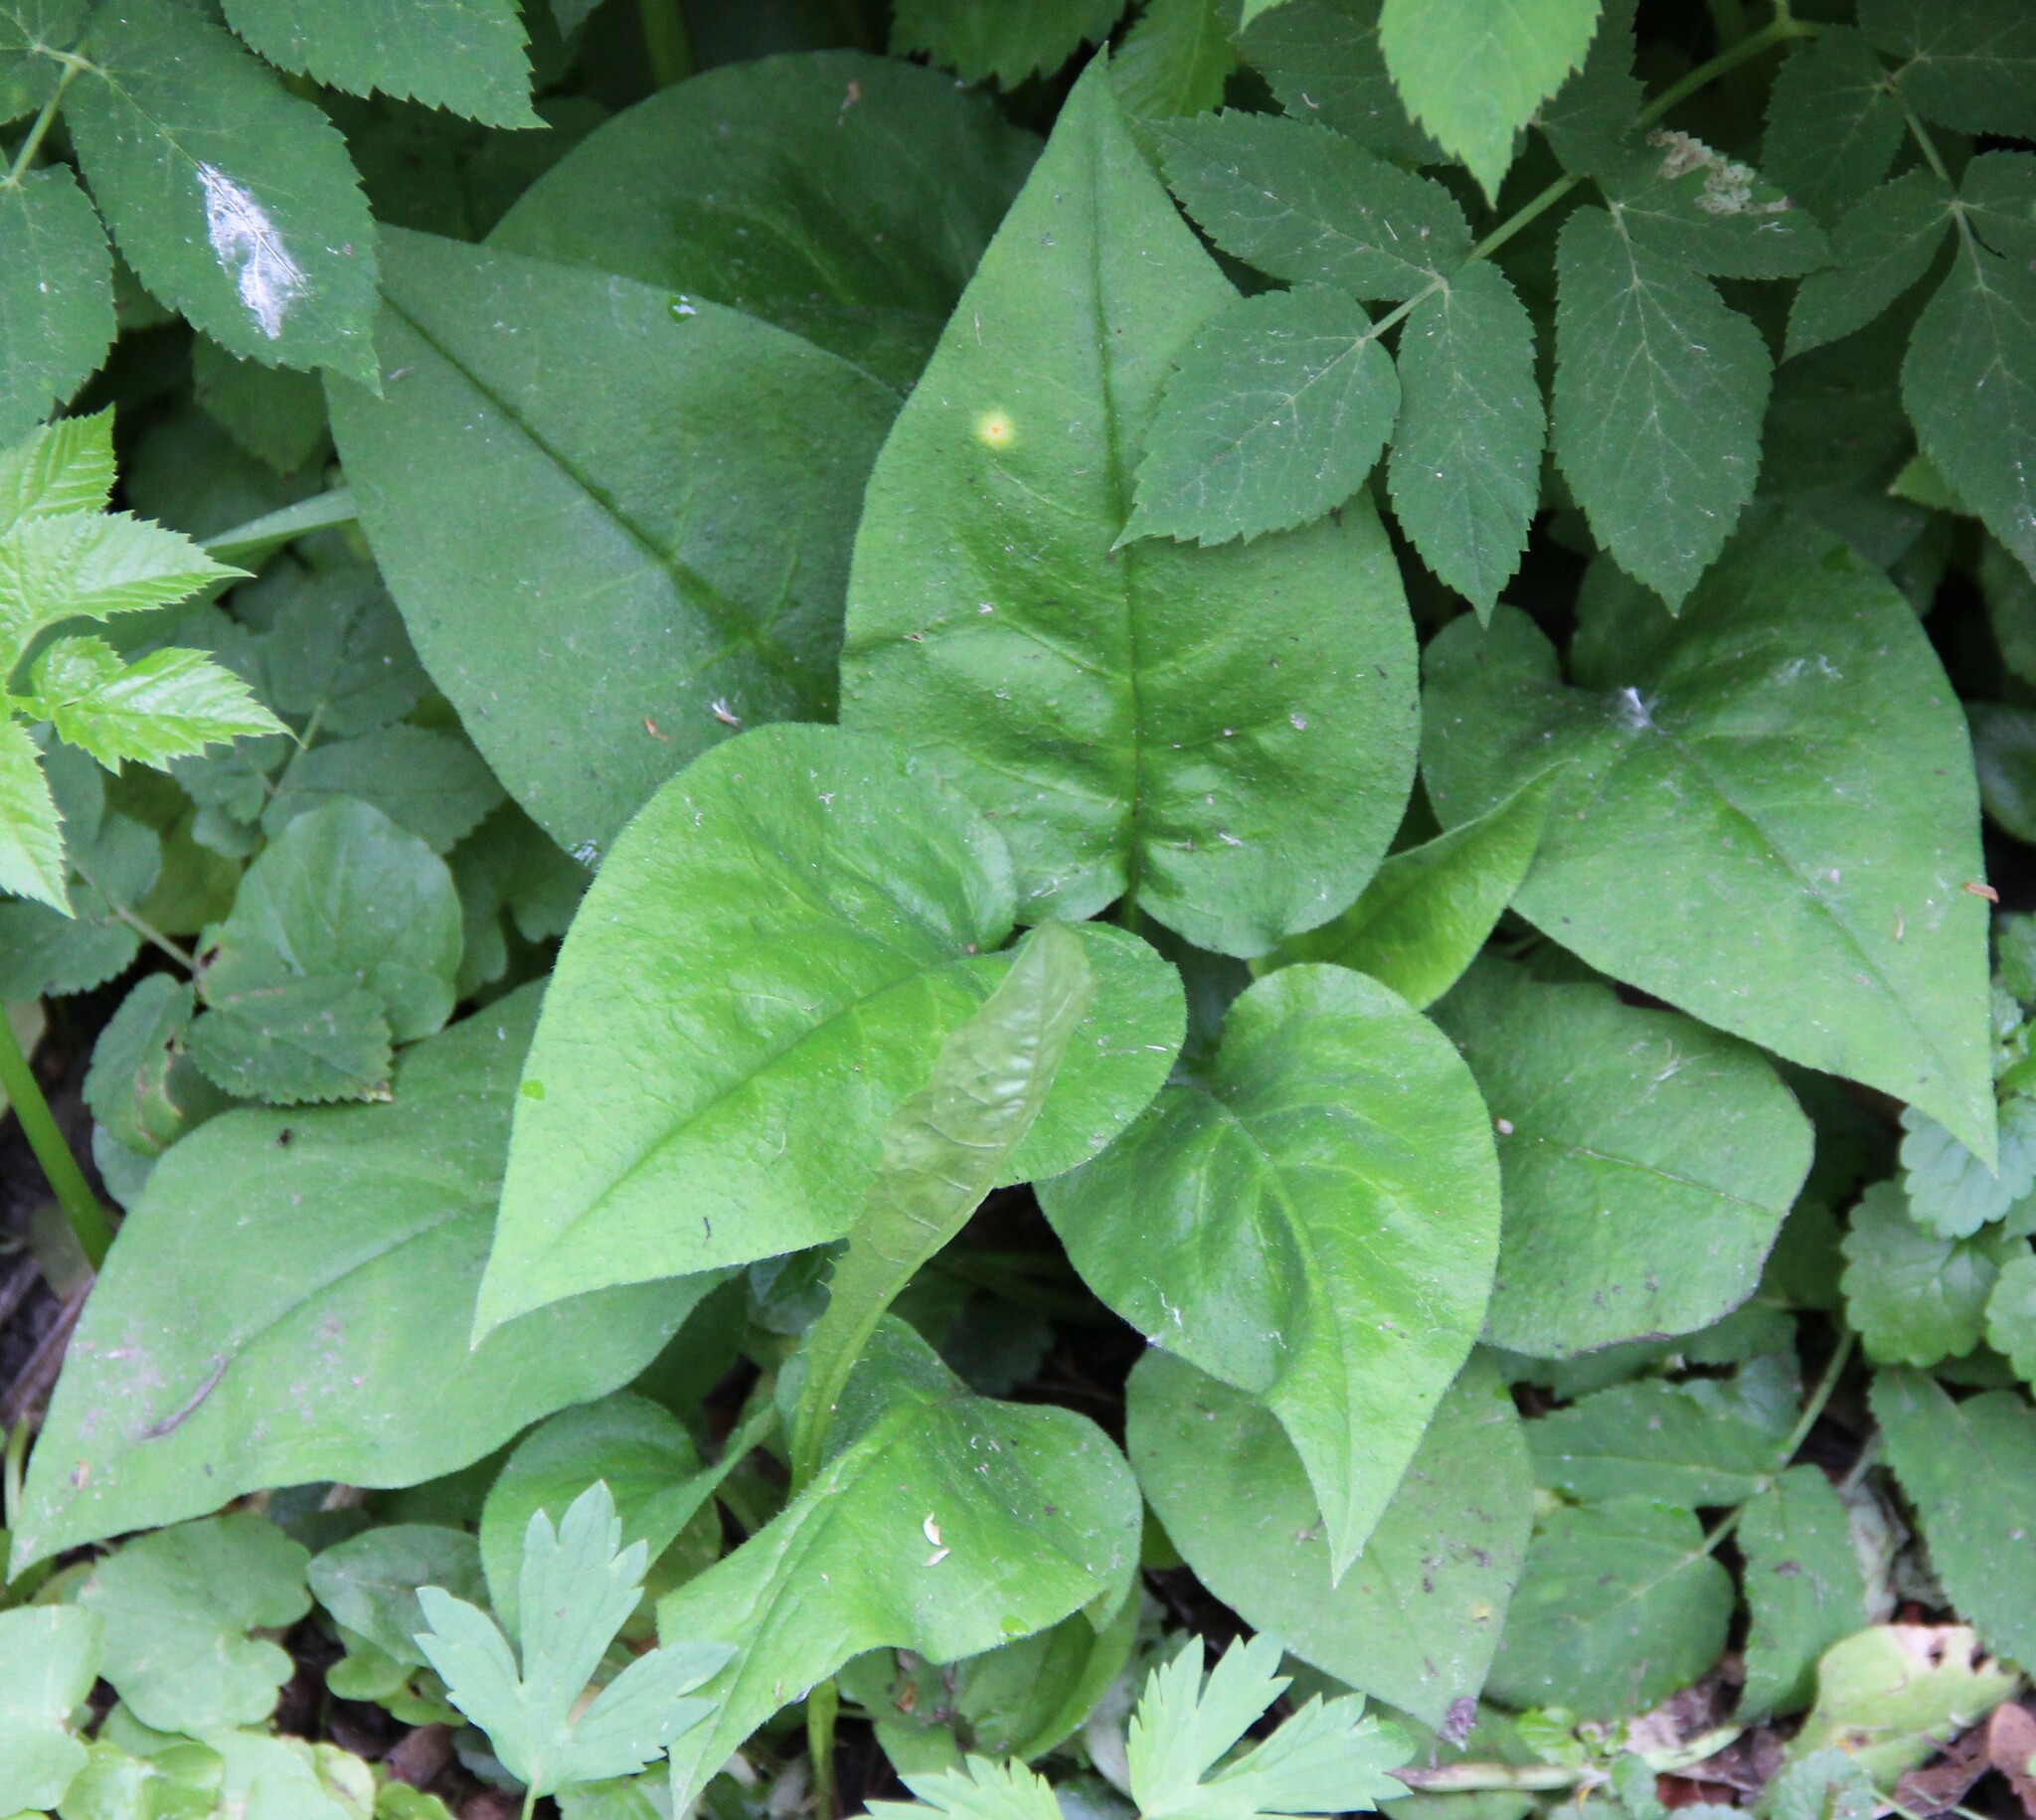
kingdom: Plantae
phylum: Tracheophyta
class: Magnoliopsida
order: Boraginales
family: Boraginaceae
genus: Pulmonaria
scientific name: Pulmonaria obscura
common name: Suffolk lungwort
